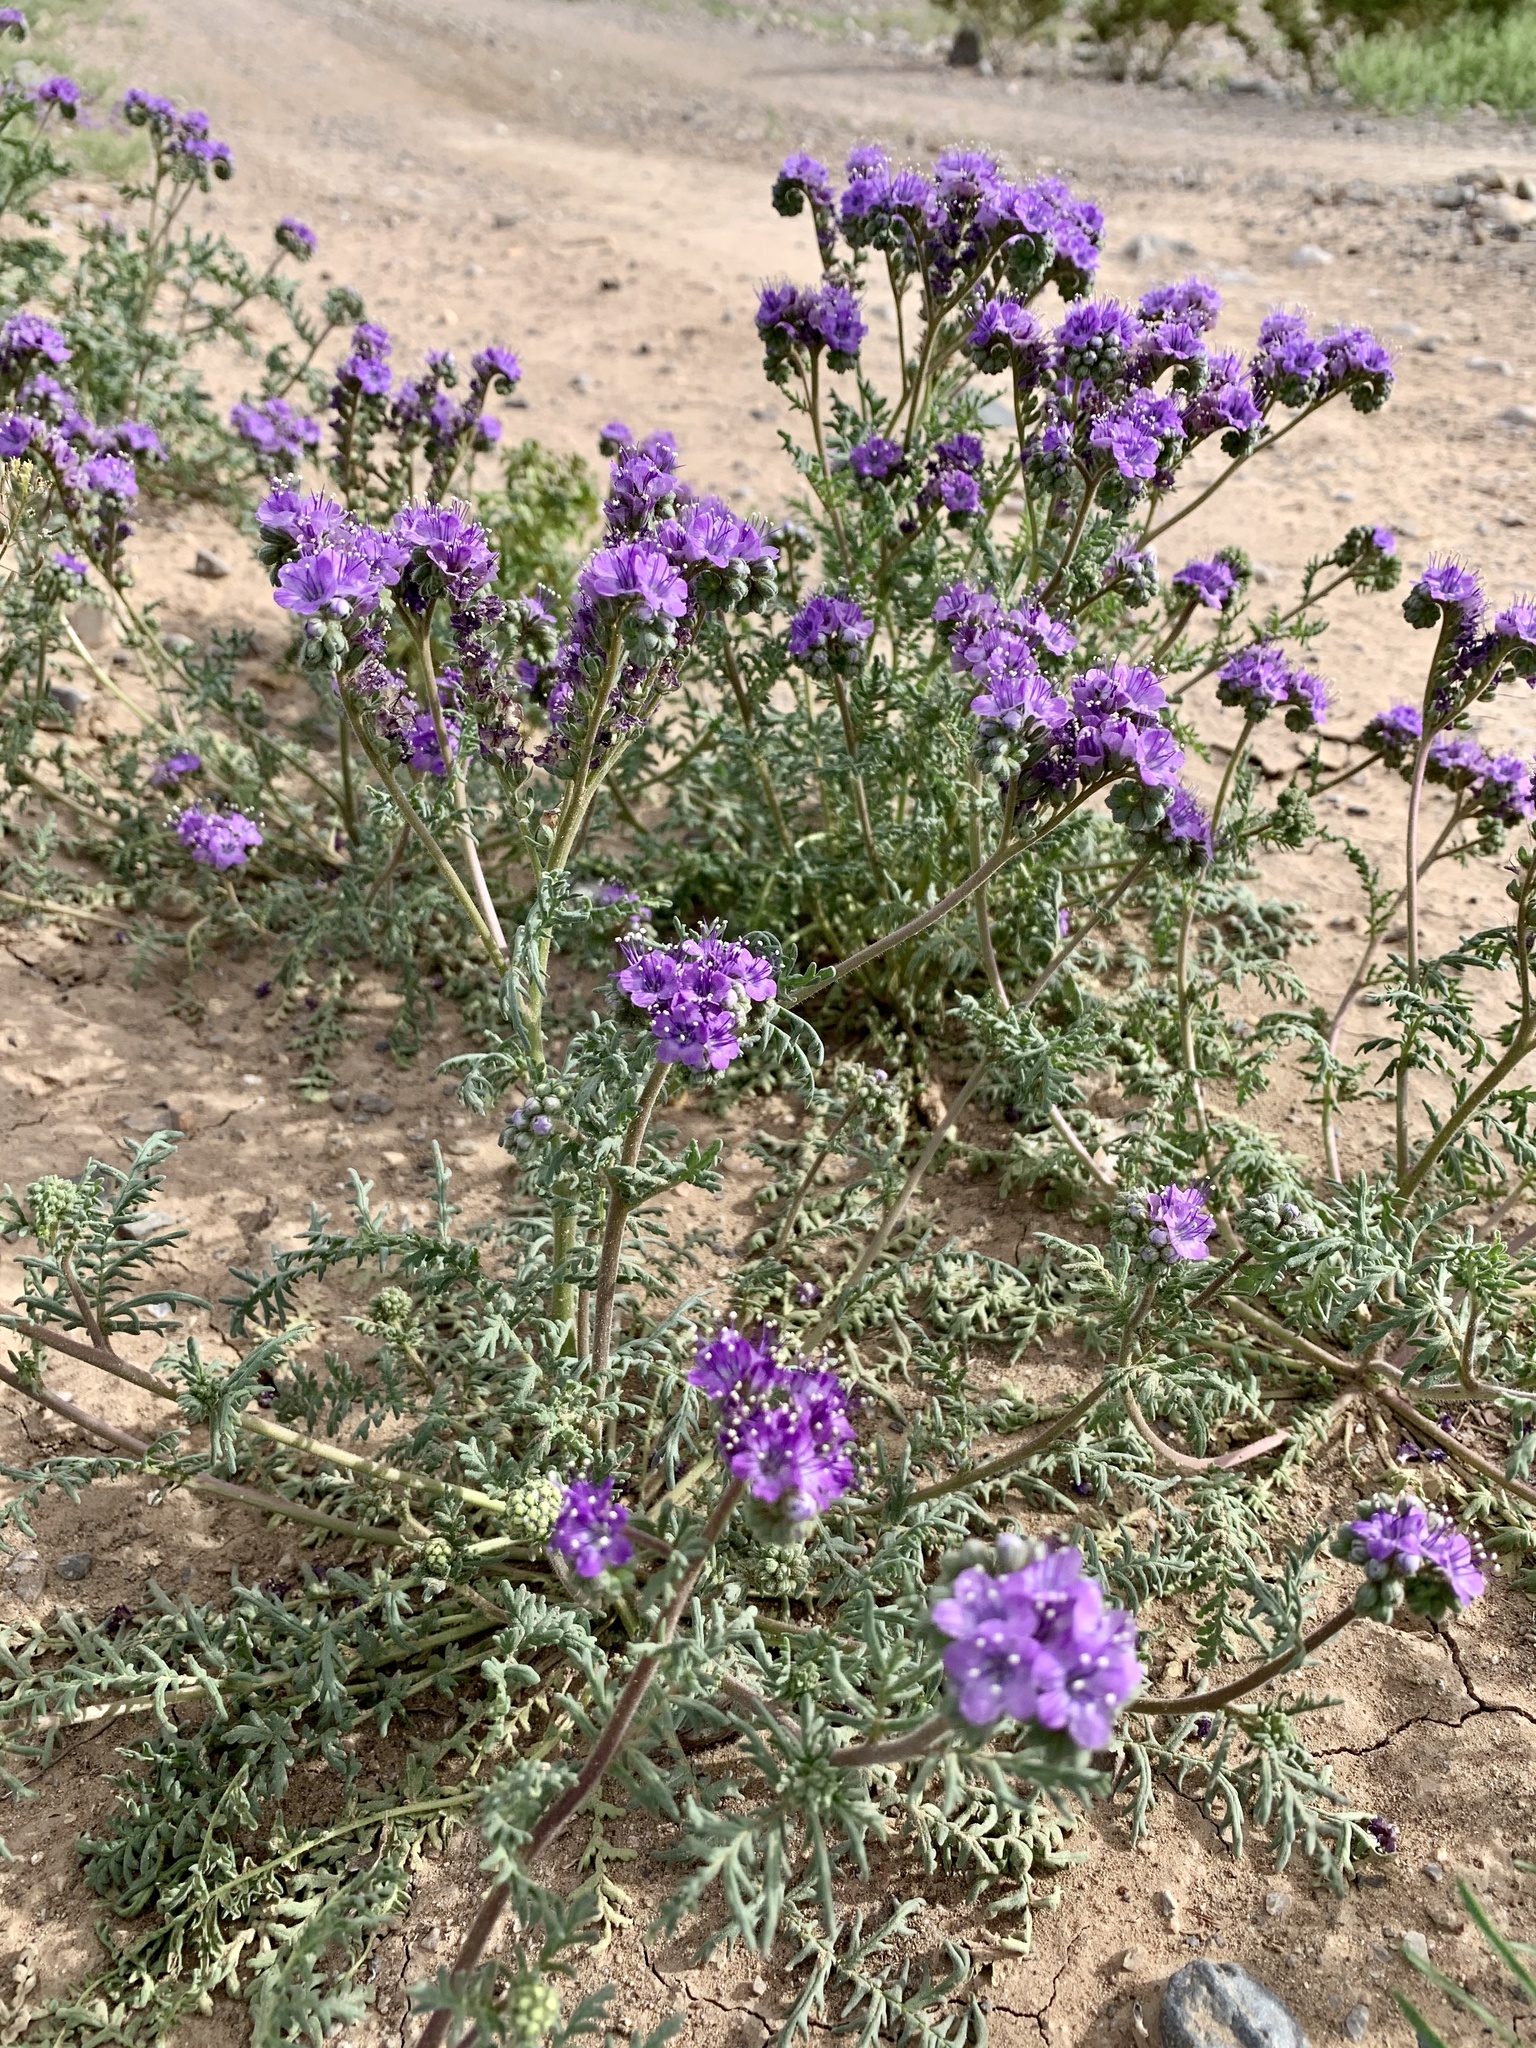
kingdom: Plantae
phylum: Tracheophyta
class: Magnoliopsida
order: Boraginales
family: Hydrophyllaceae
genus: Phacelia
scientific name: Phacelia popei
